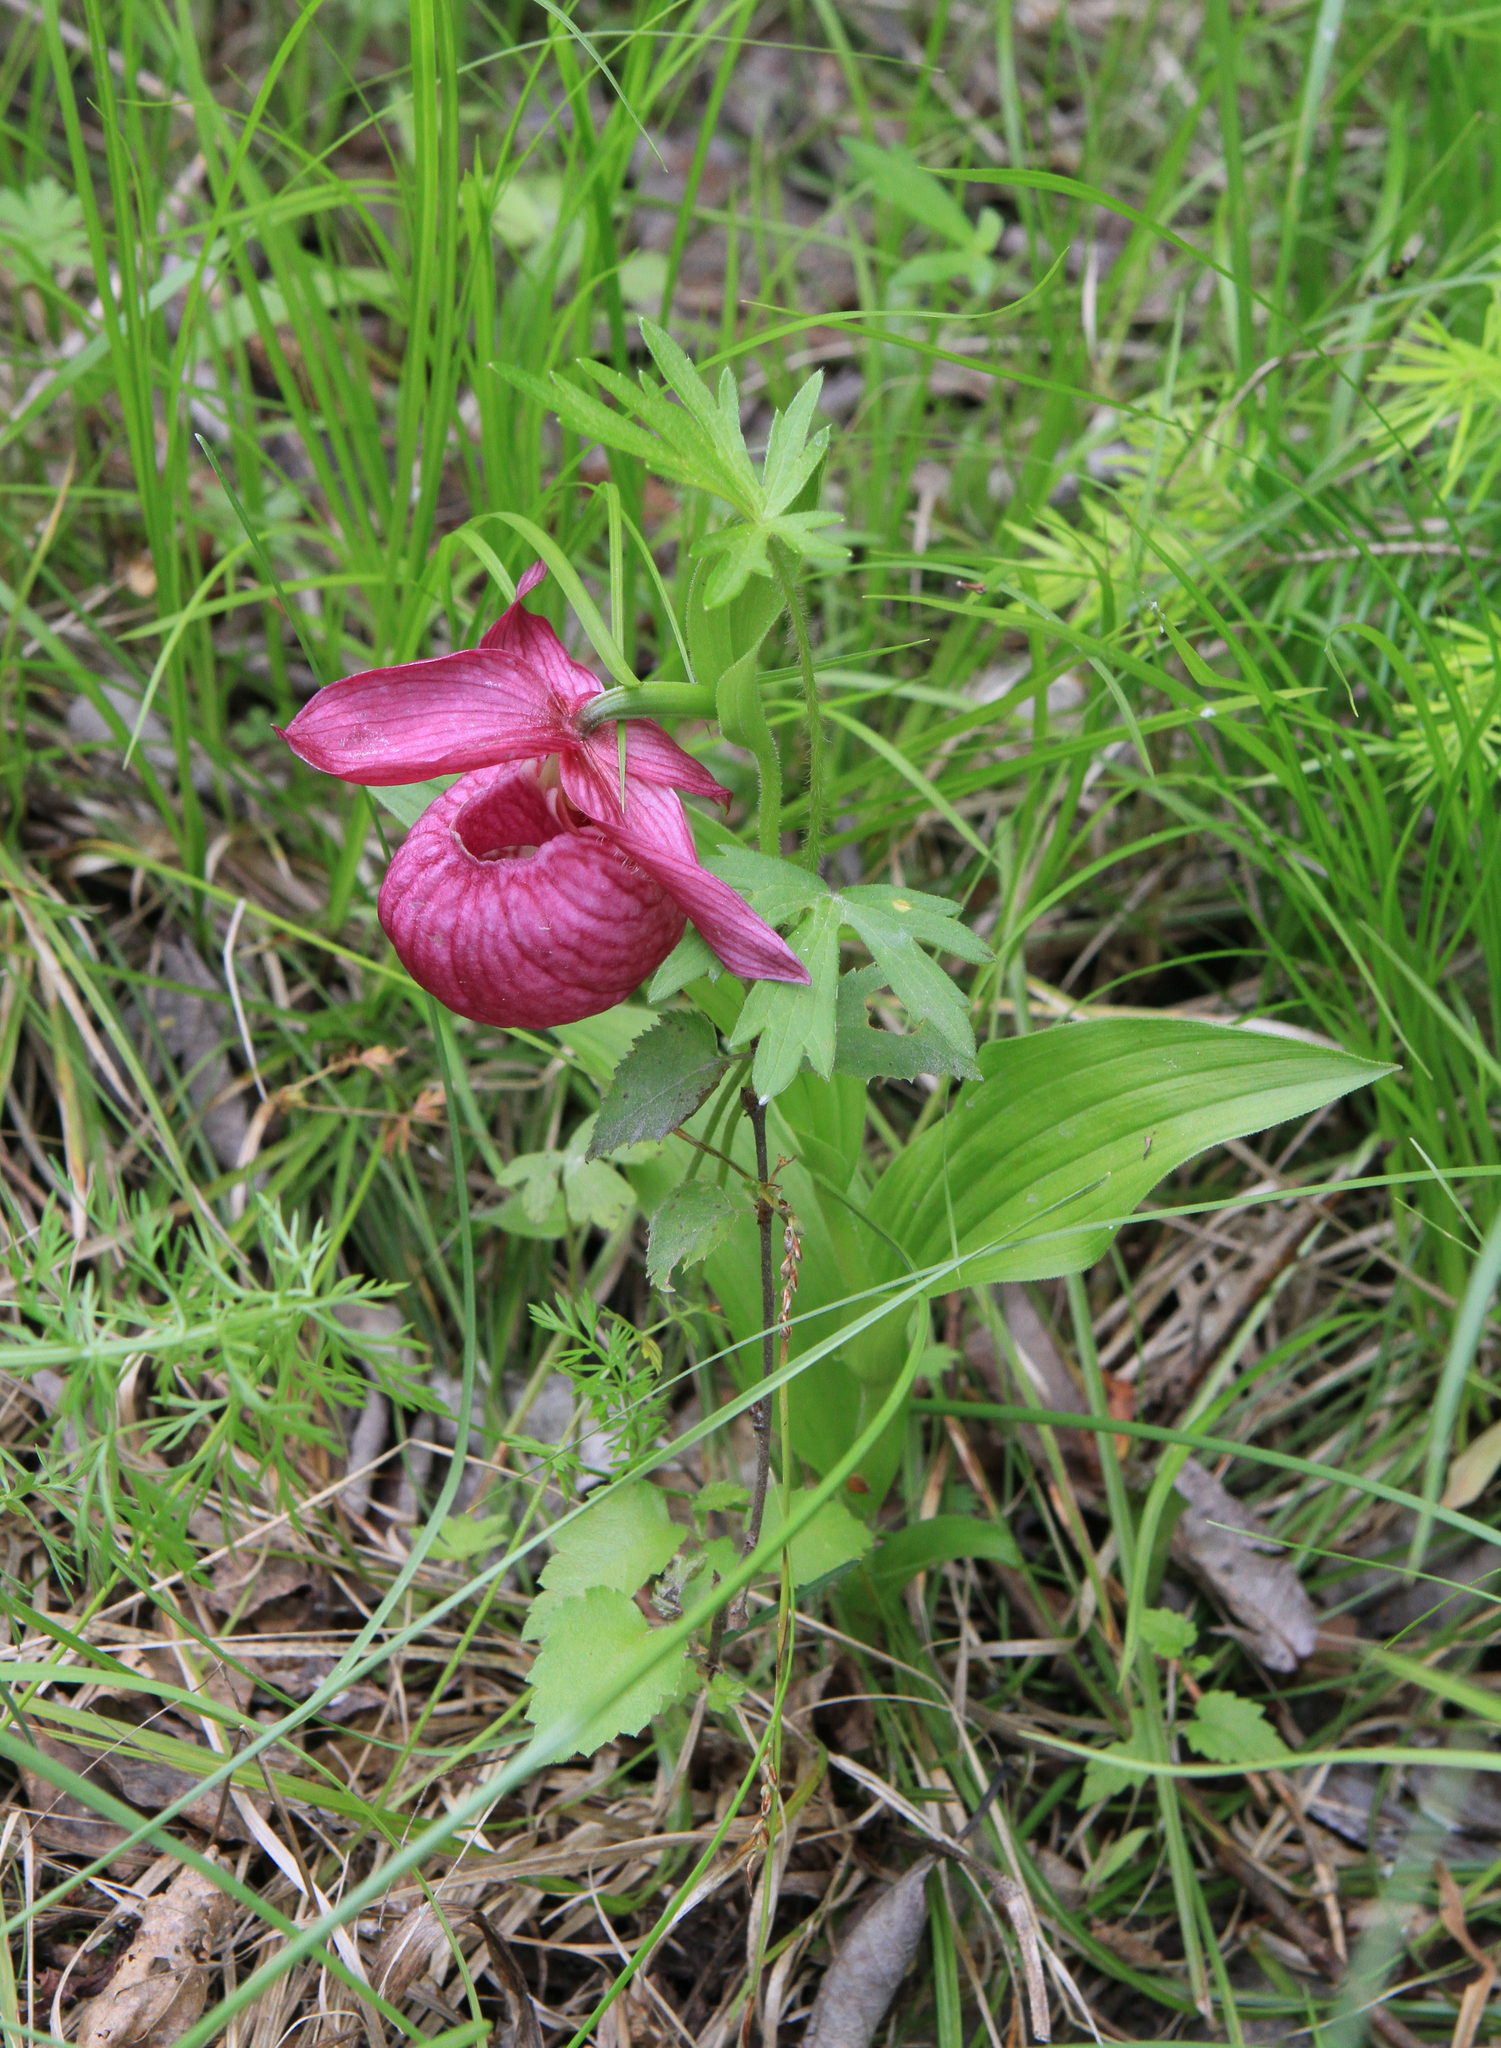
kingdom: Plantae
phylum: Tracheophyta
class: Liliopsida
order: Asparagales
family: Orchidaceae
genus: Cypripedium
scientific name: Cypripedium macranthos
